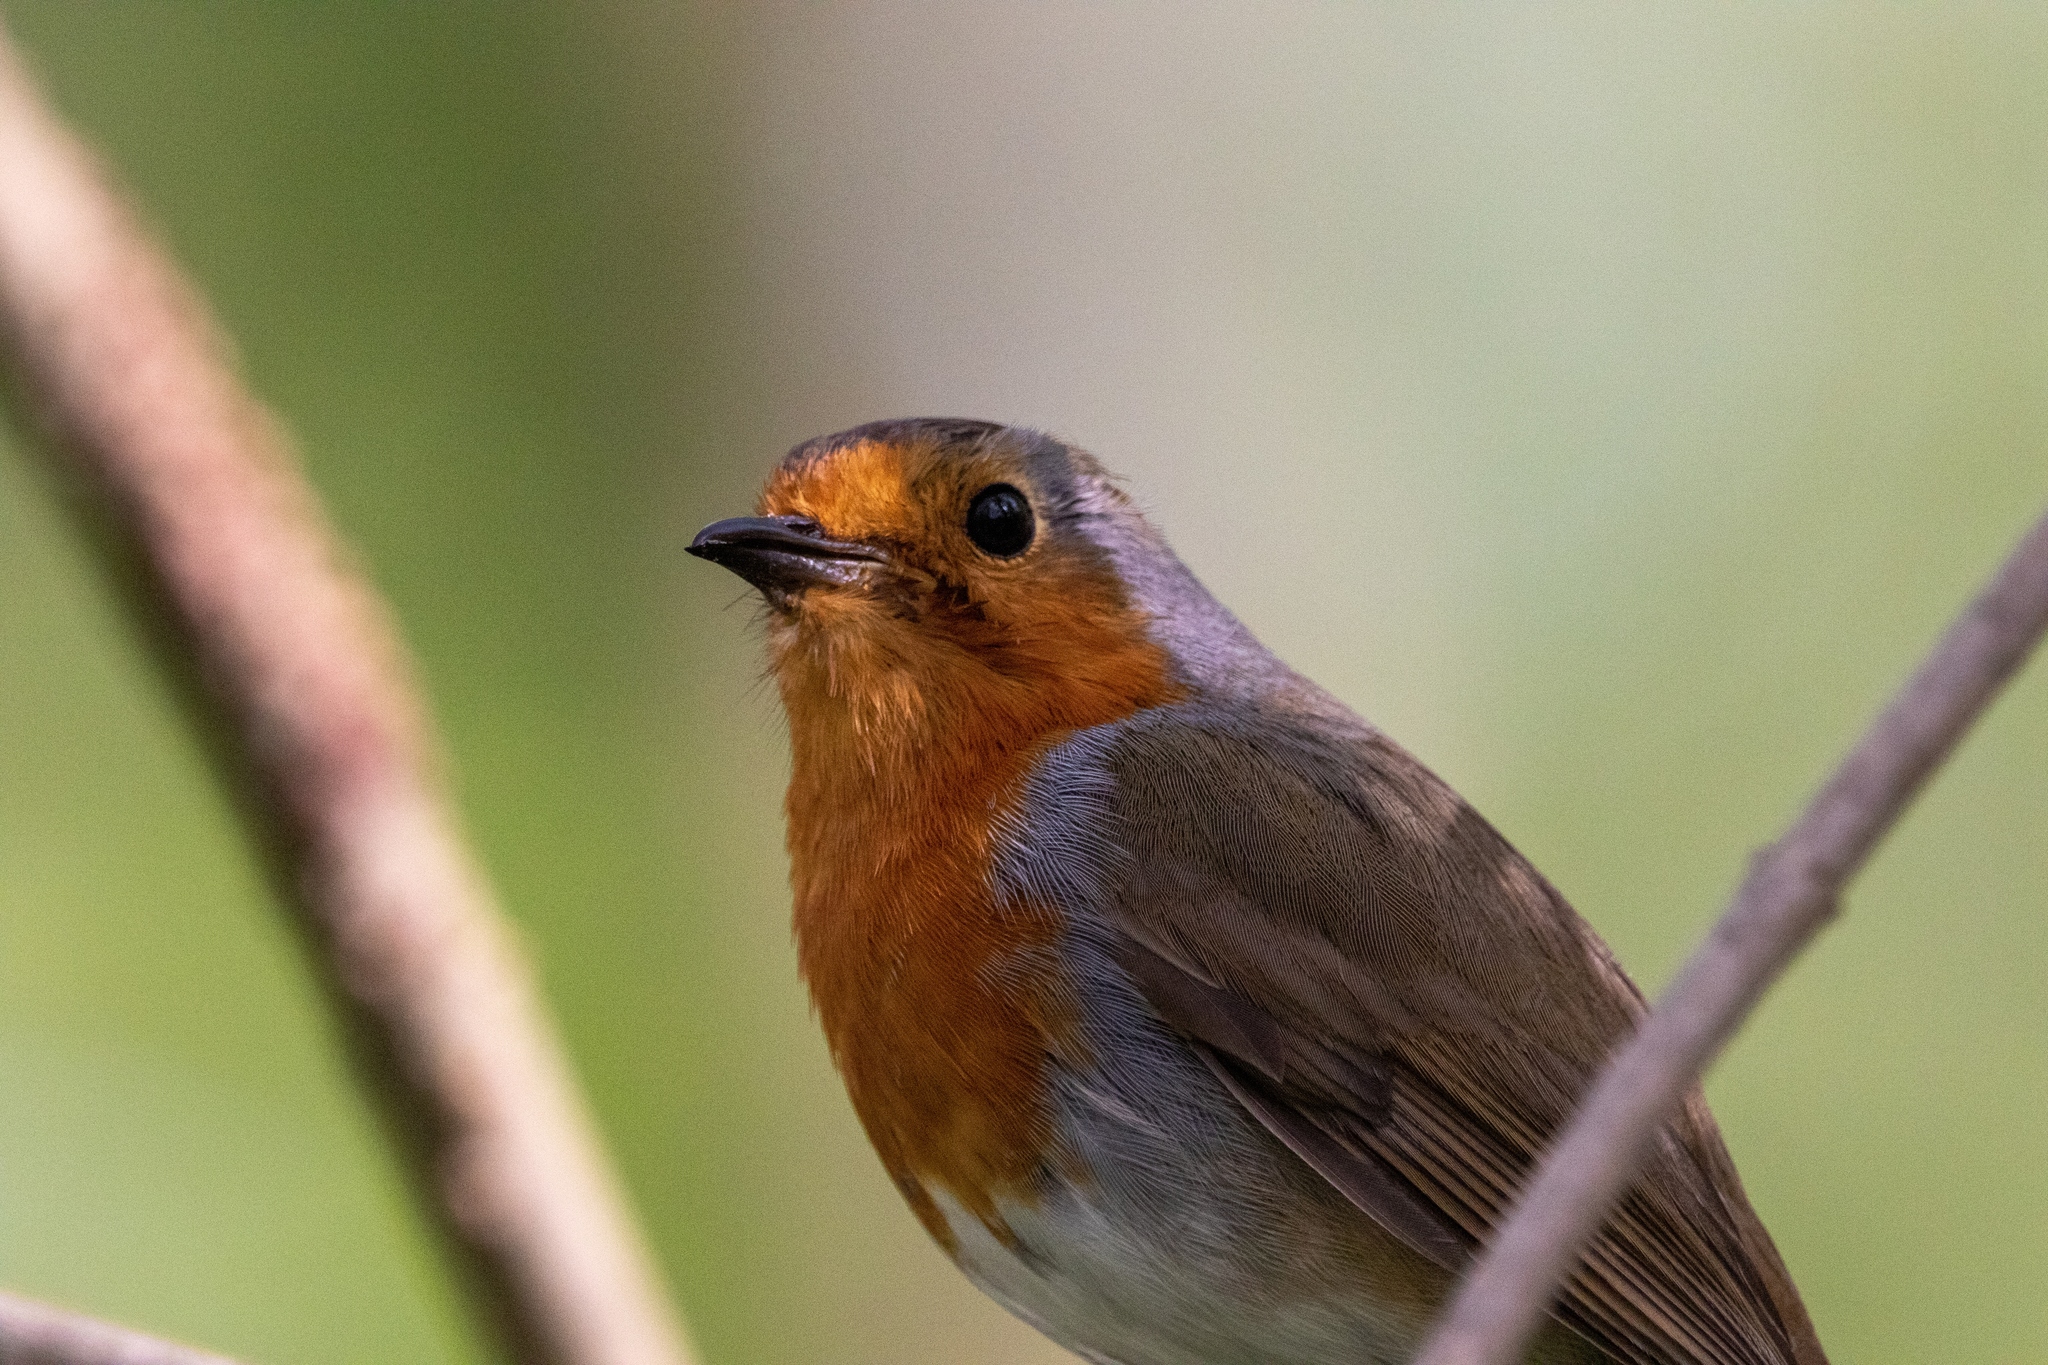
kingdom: Animalia
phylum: Chordata
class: Aves
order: Passeriformes
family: Muscicapidae
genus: Erithacus
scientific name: Erithacus rubecula
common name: European robin
